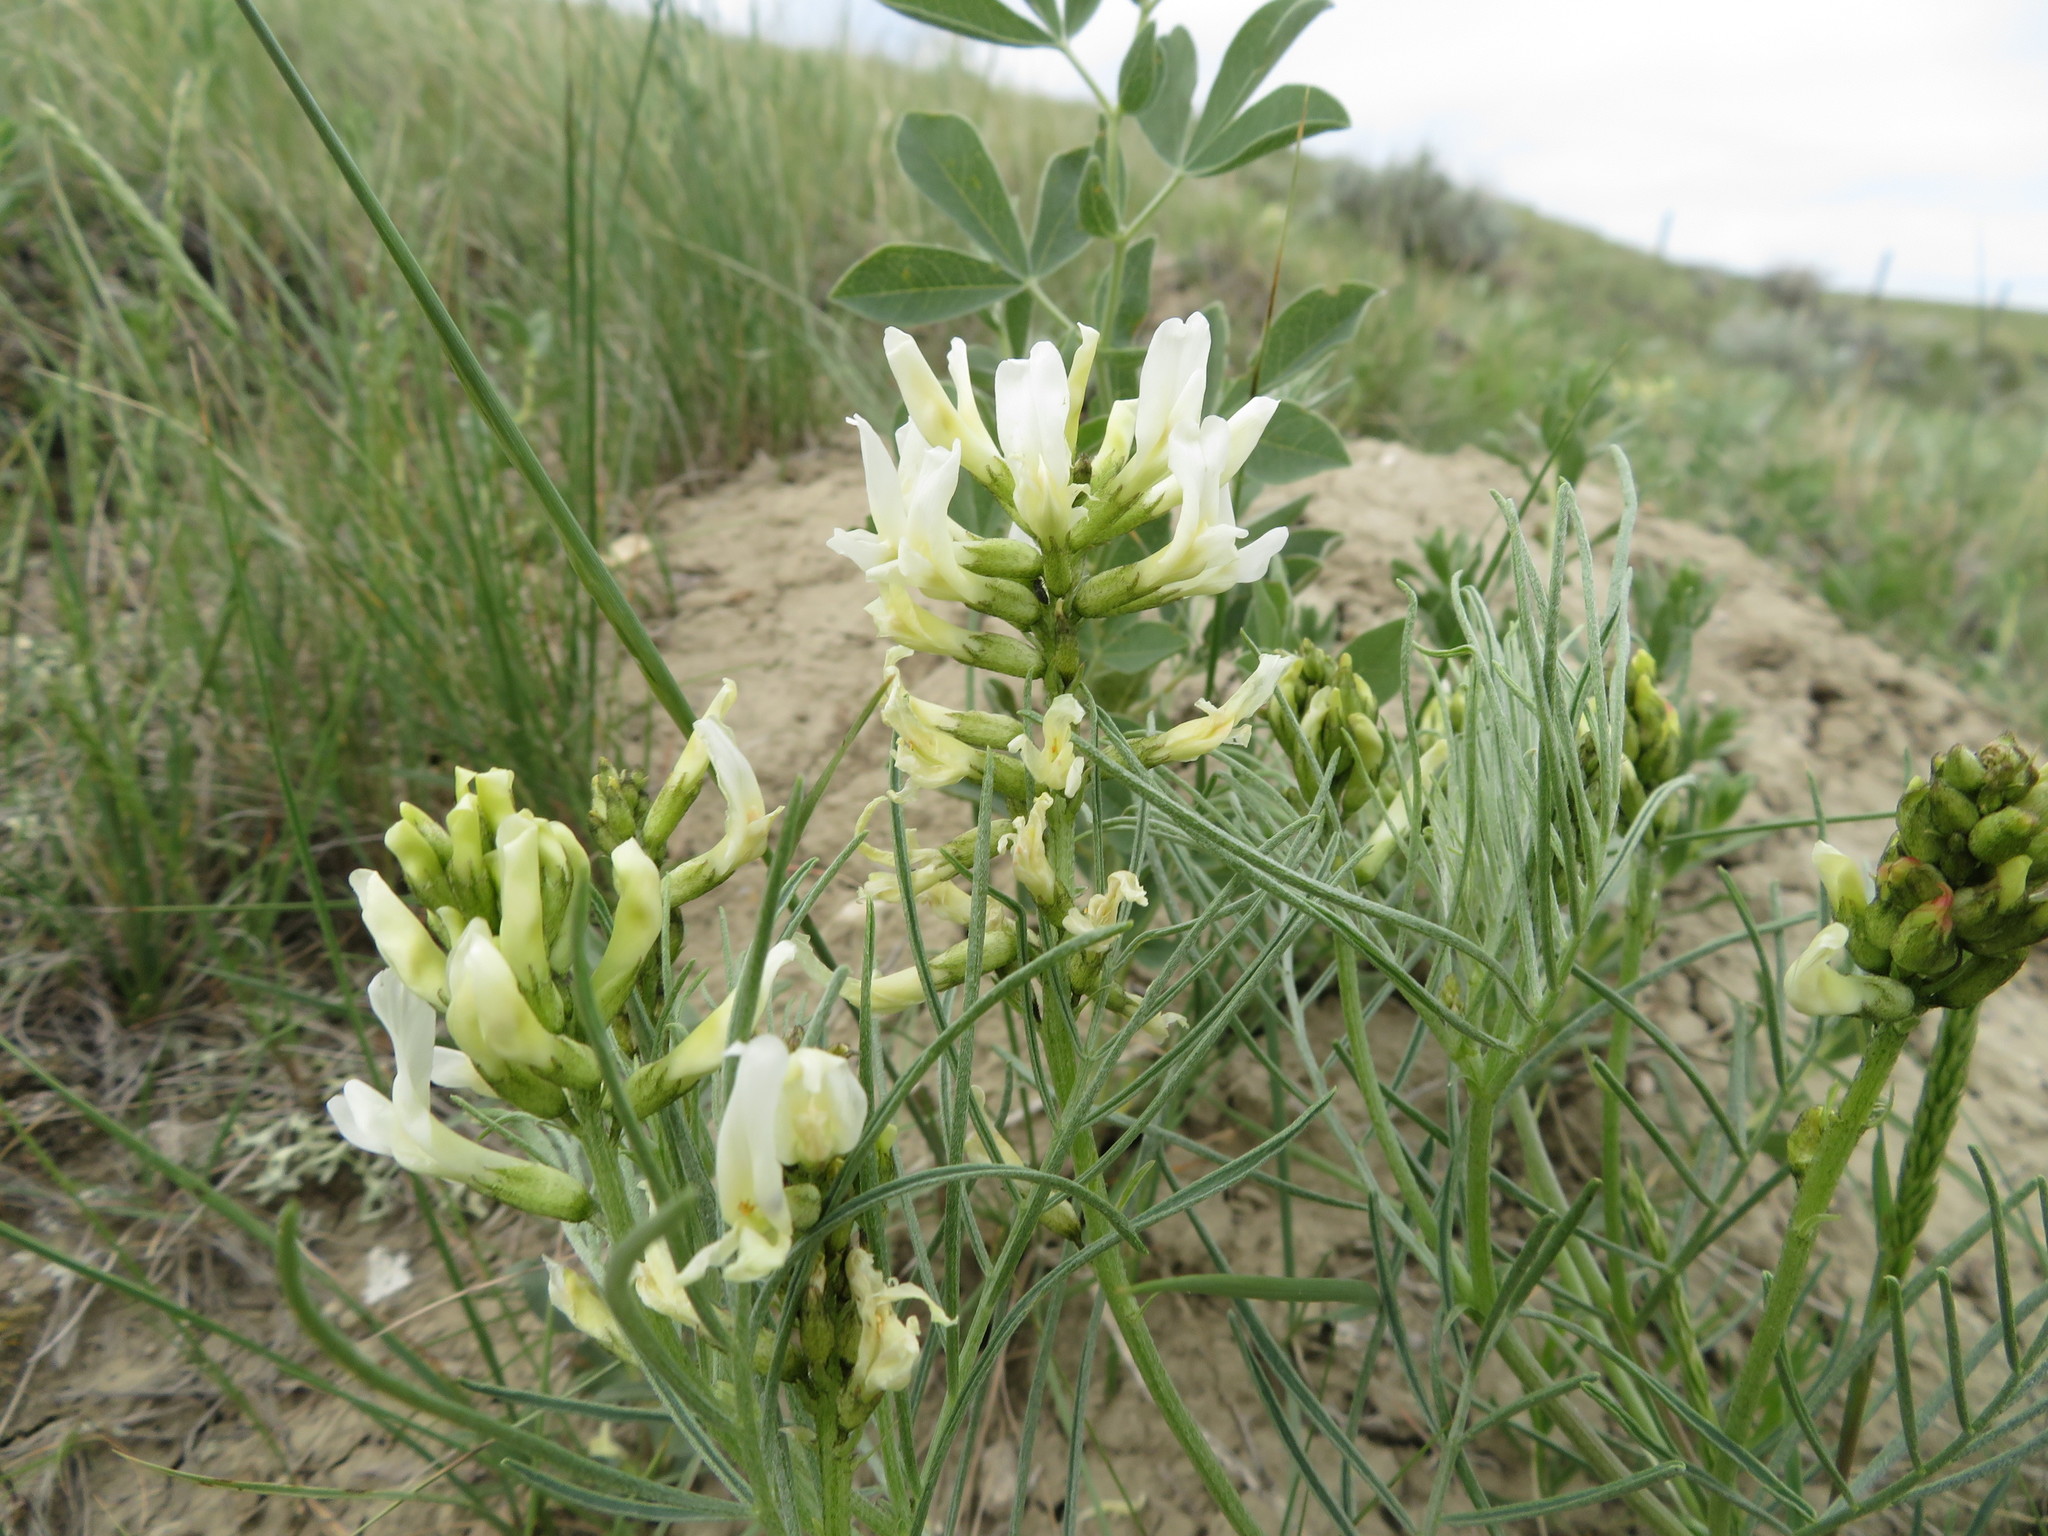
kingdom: Plantae
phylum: Tracheophyta
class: Magnoliopsida
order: Fabales
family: Fabaceae
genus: Astragalus
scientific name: Astragalus pectinatus
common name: Tine-leaf milk-vetch
